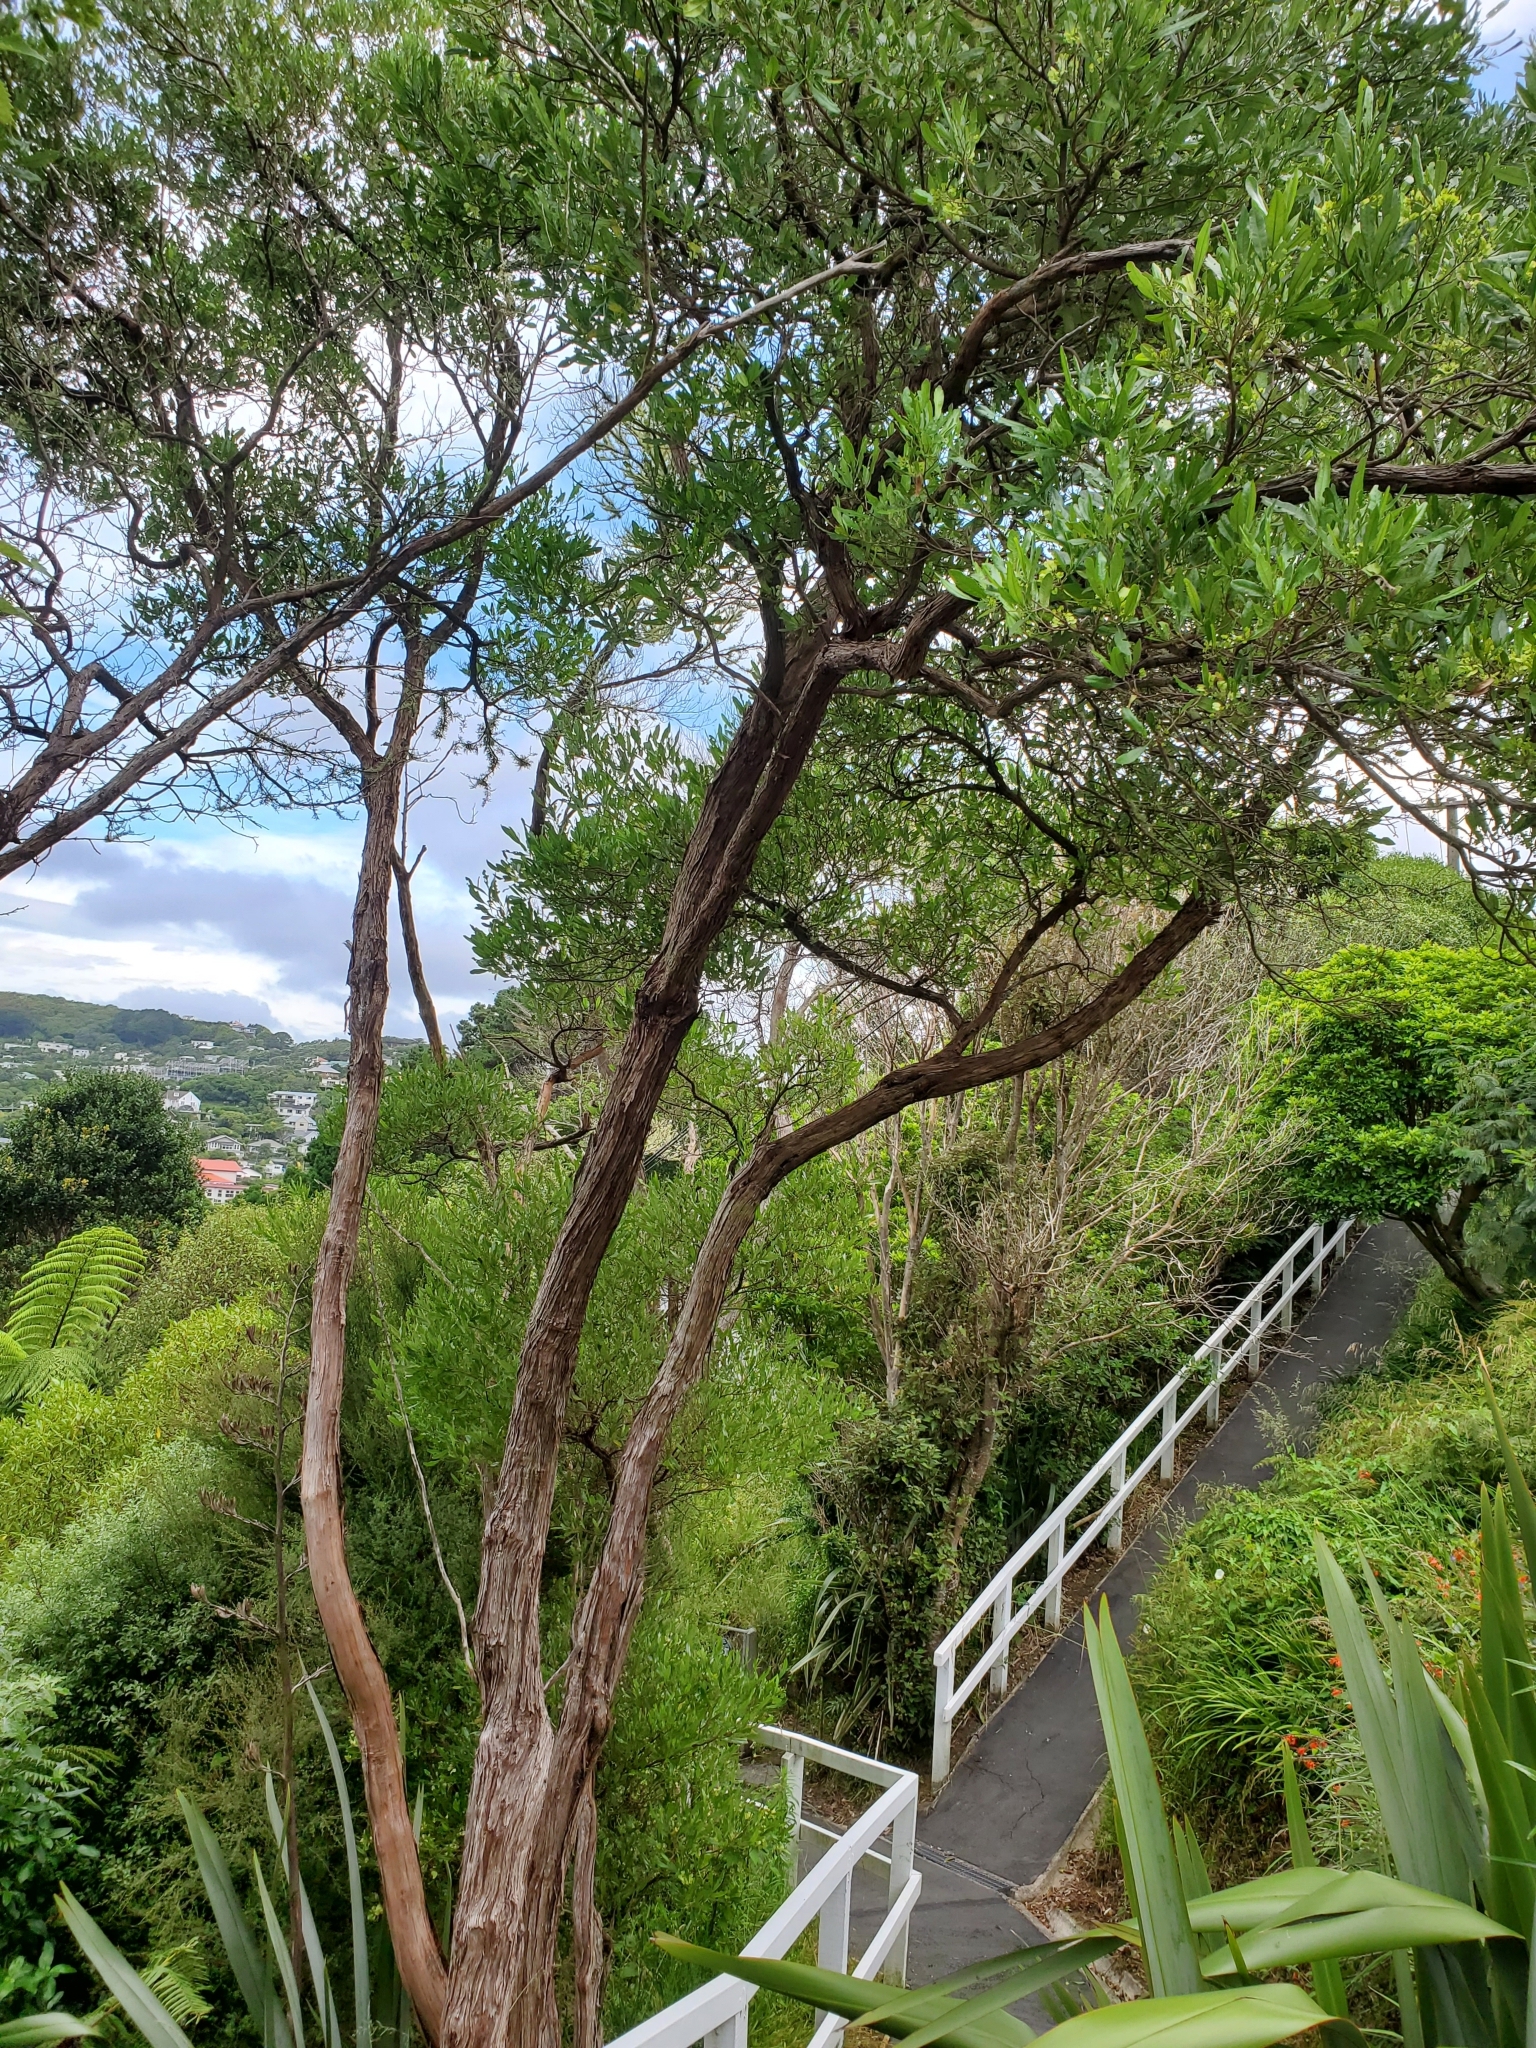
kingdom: Plantae
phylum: Tracheophyta
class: Magnoliopsida
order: Sapindales
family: Sapindaceae
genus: Dodonaea
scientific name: Dodonaea viscosa
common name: Hopbush
